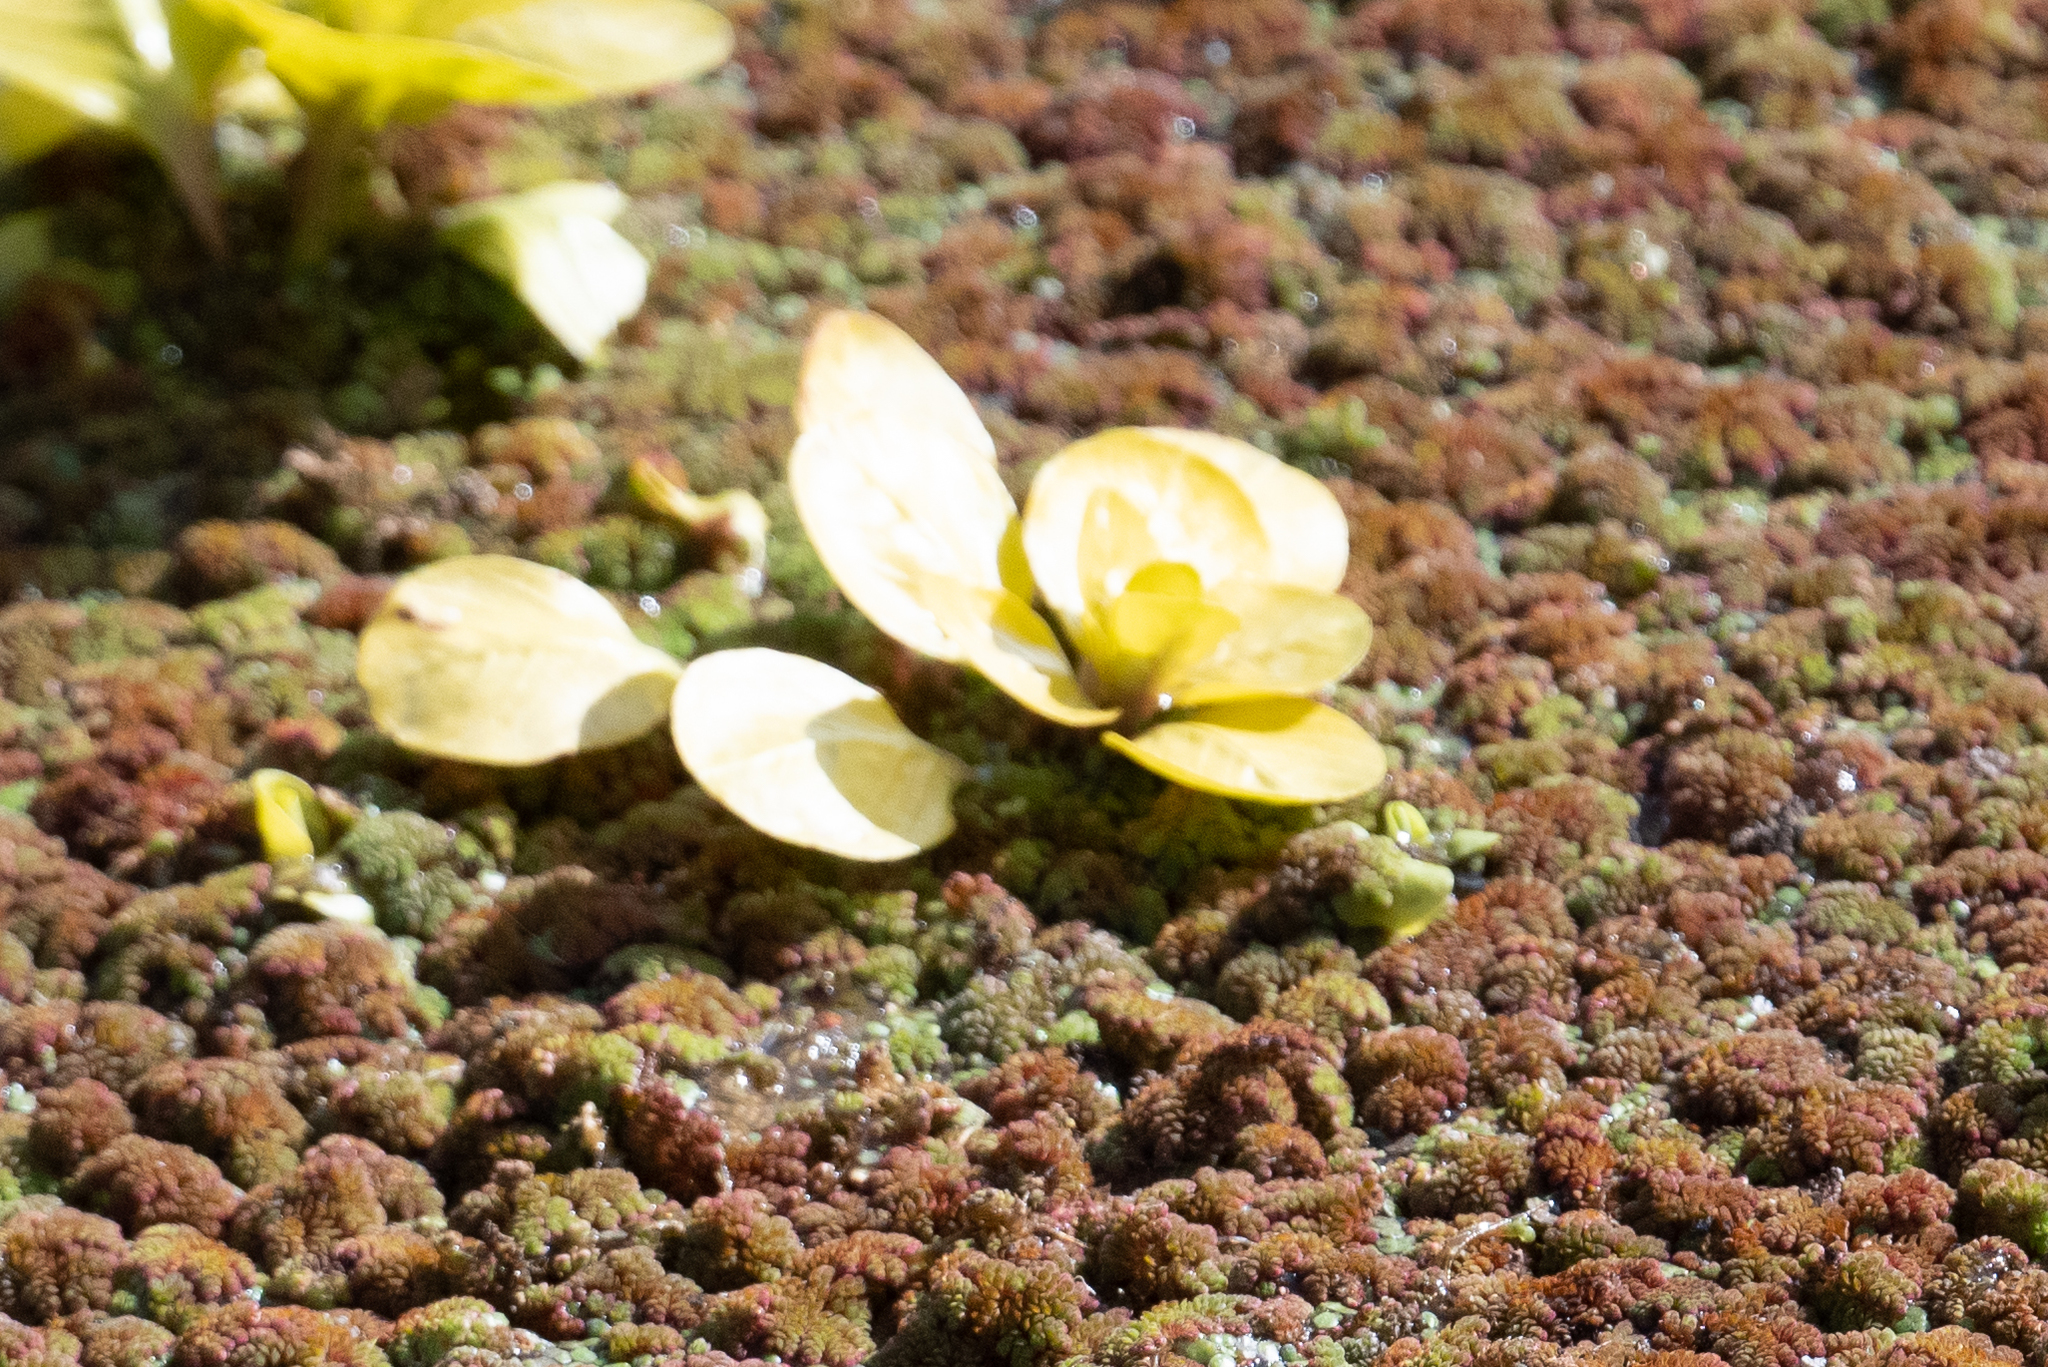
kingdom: Plantae
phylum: Tracheophyta
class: Polypodiopsida
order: Salviniales
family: Salviniaceae
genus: Azolla
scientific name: Azolla filiculoides
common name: Water fern
